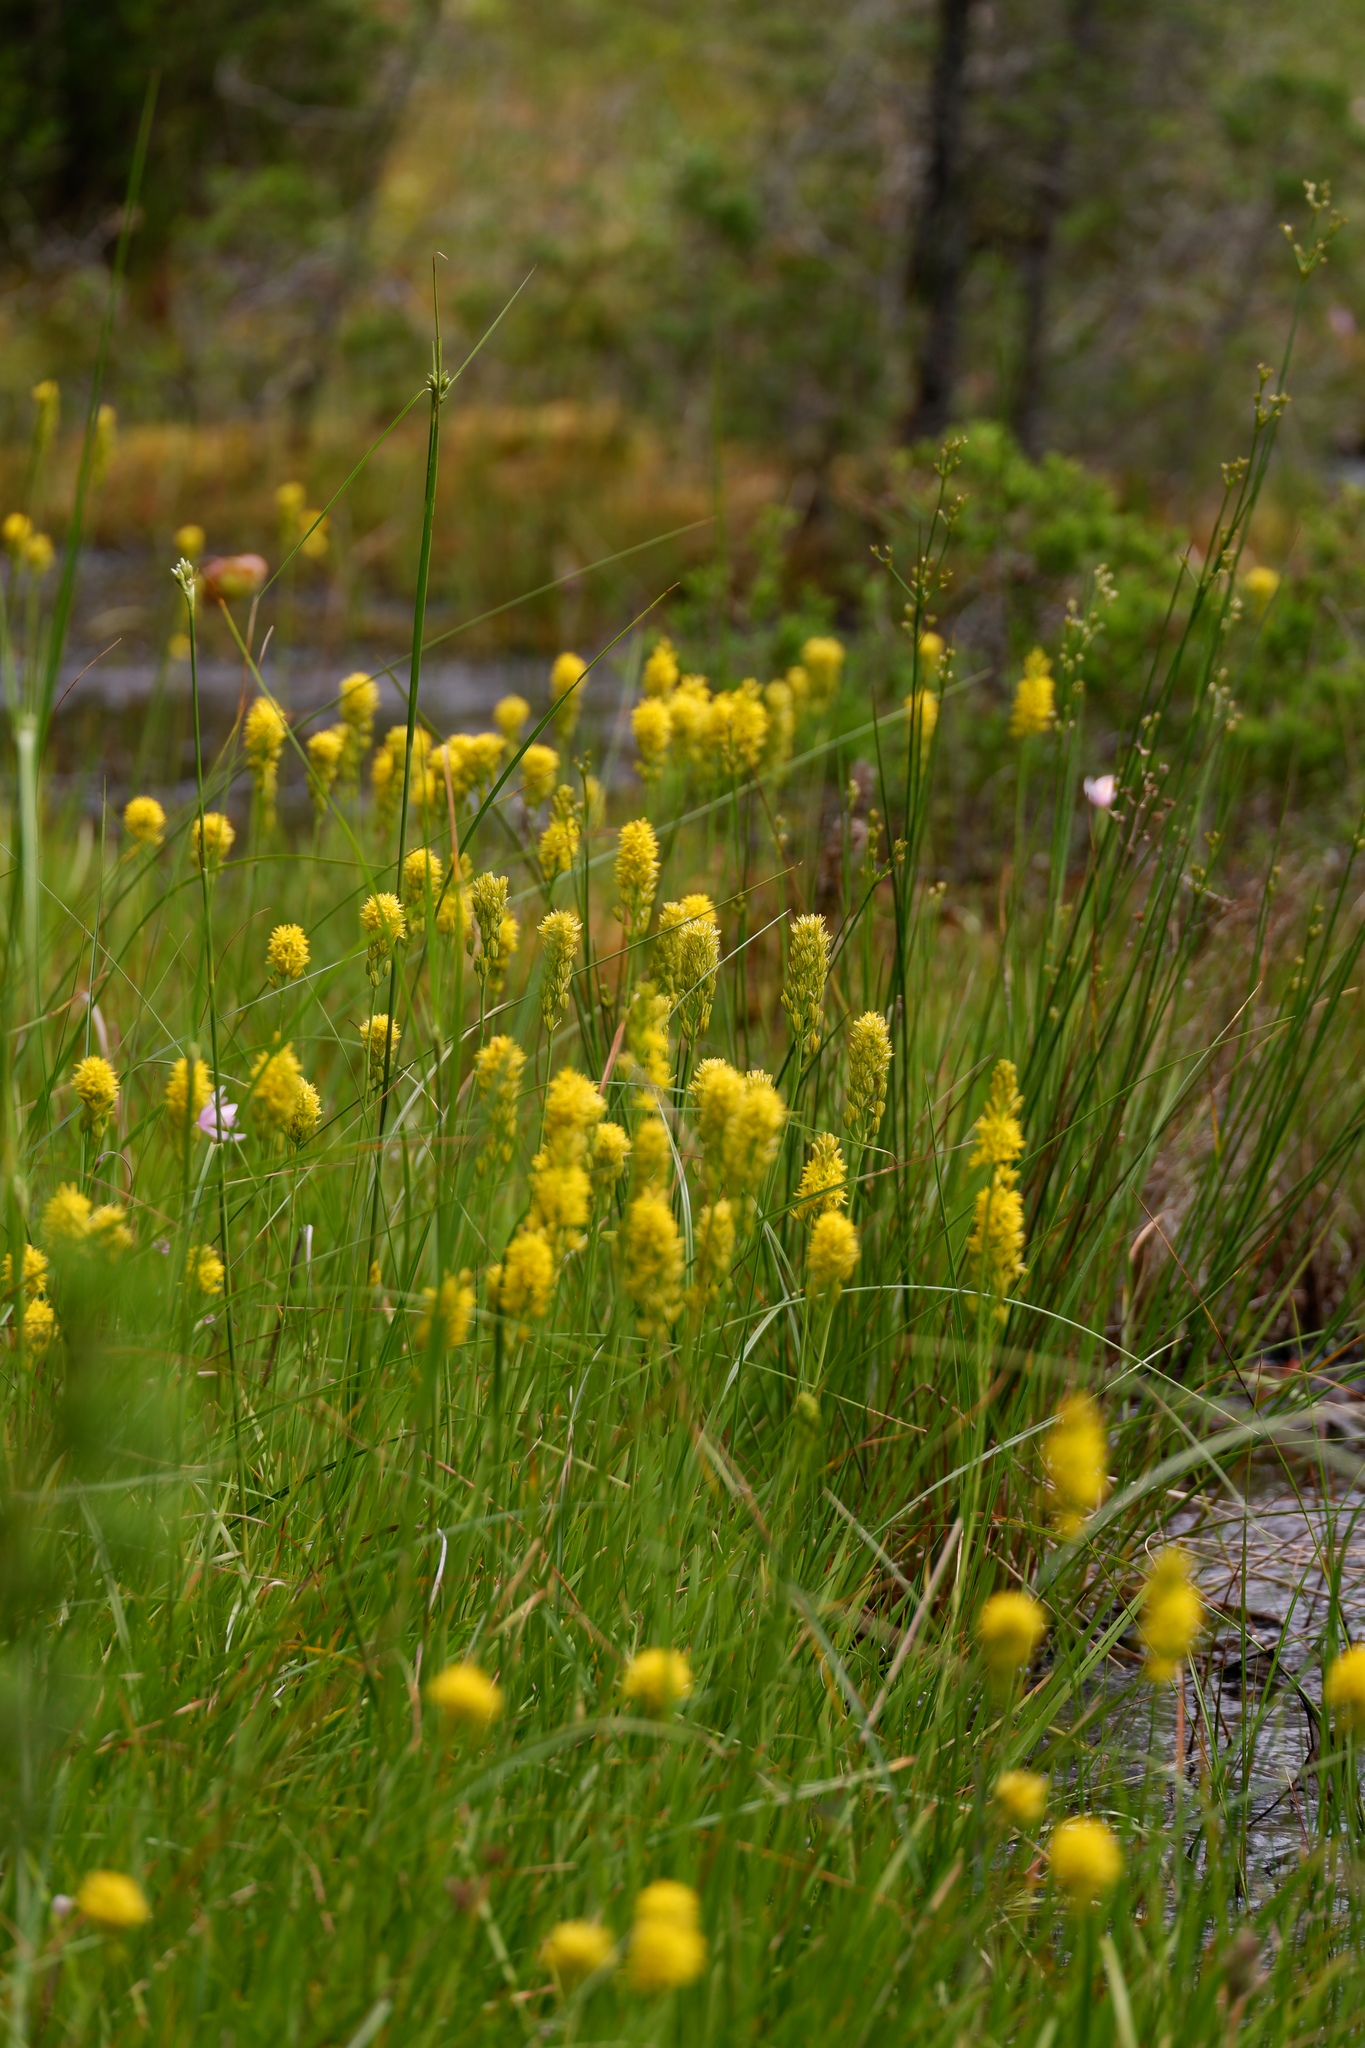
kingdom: Plantae
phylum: Tracheophyta
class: Liliopsida
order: Poales
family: Cyperaceae
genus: Eriophorum
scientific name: Eriophorum virginicum
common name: Tawny cottongrass
